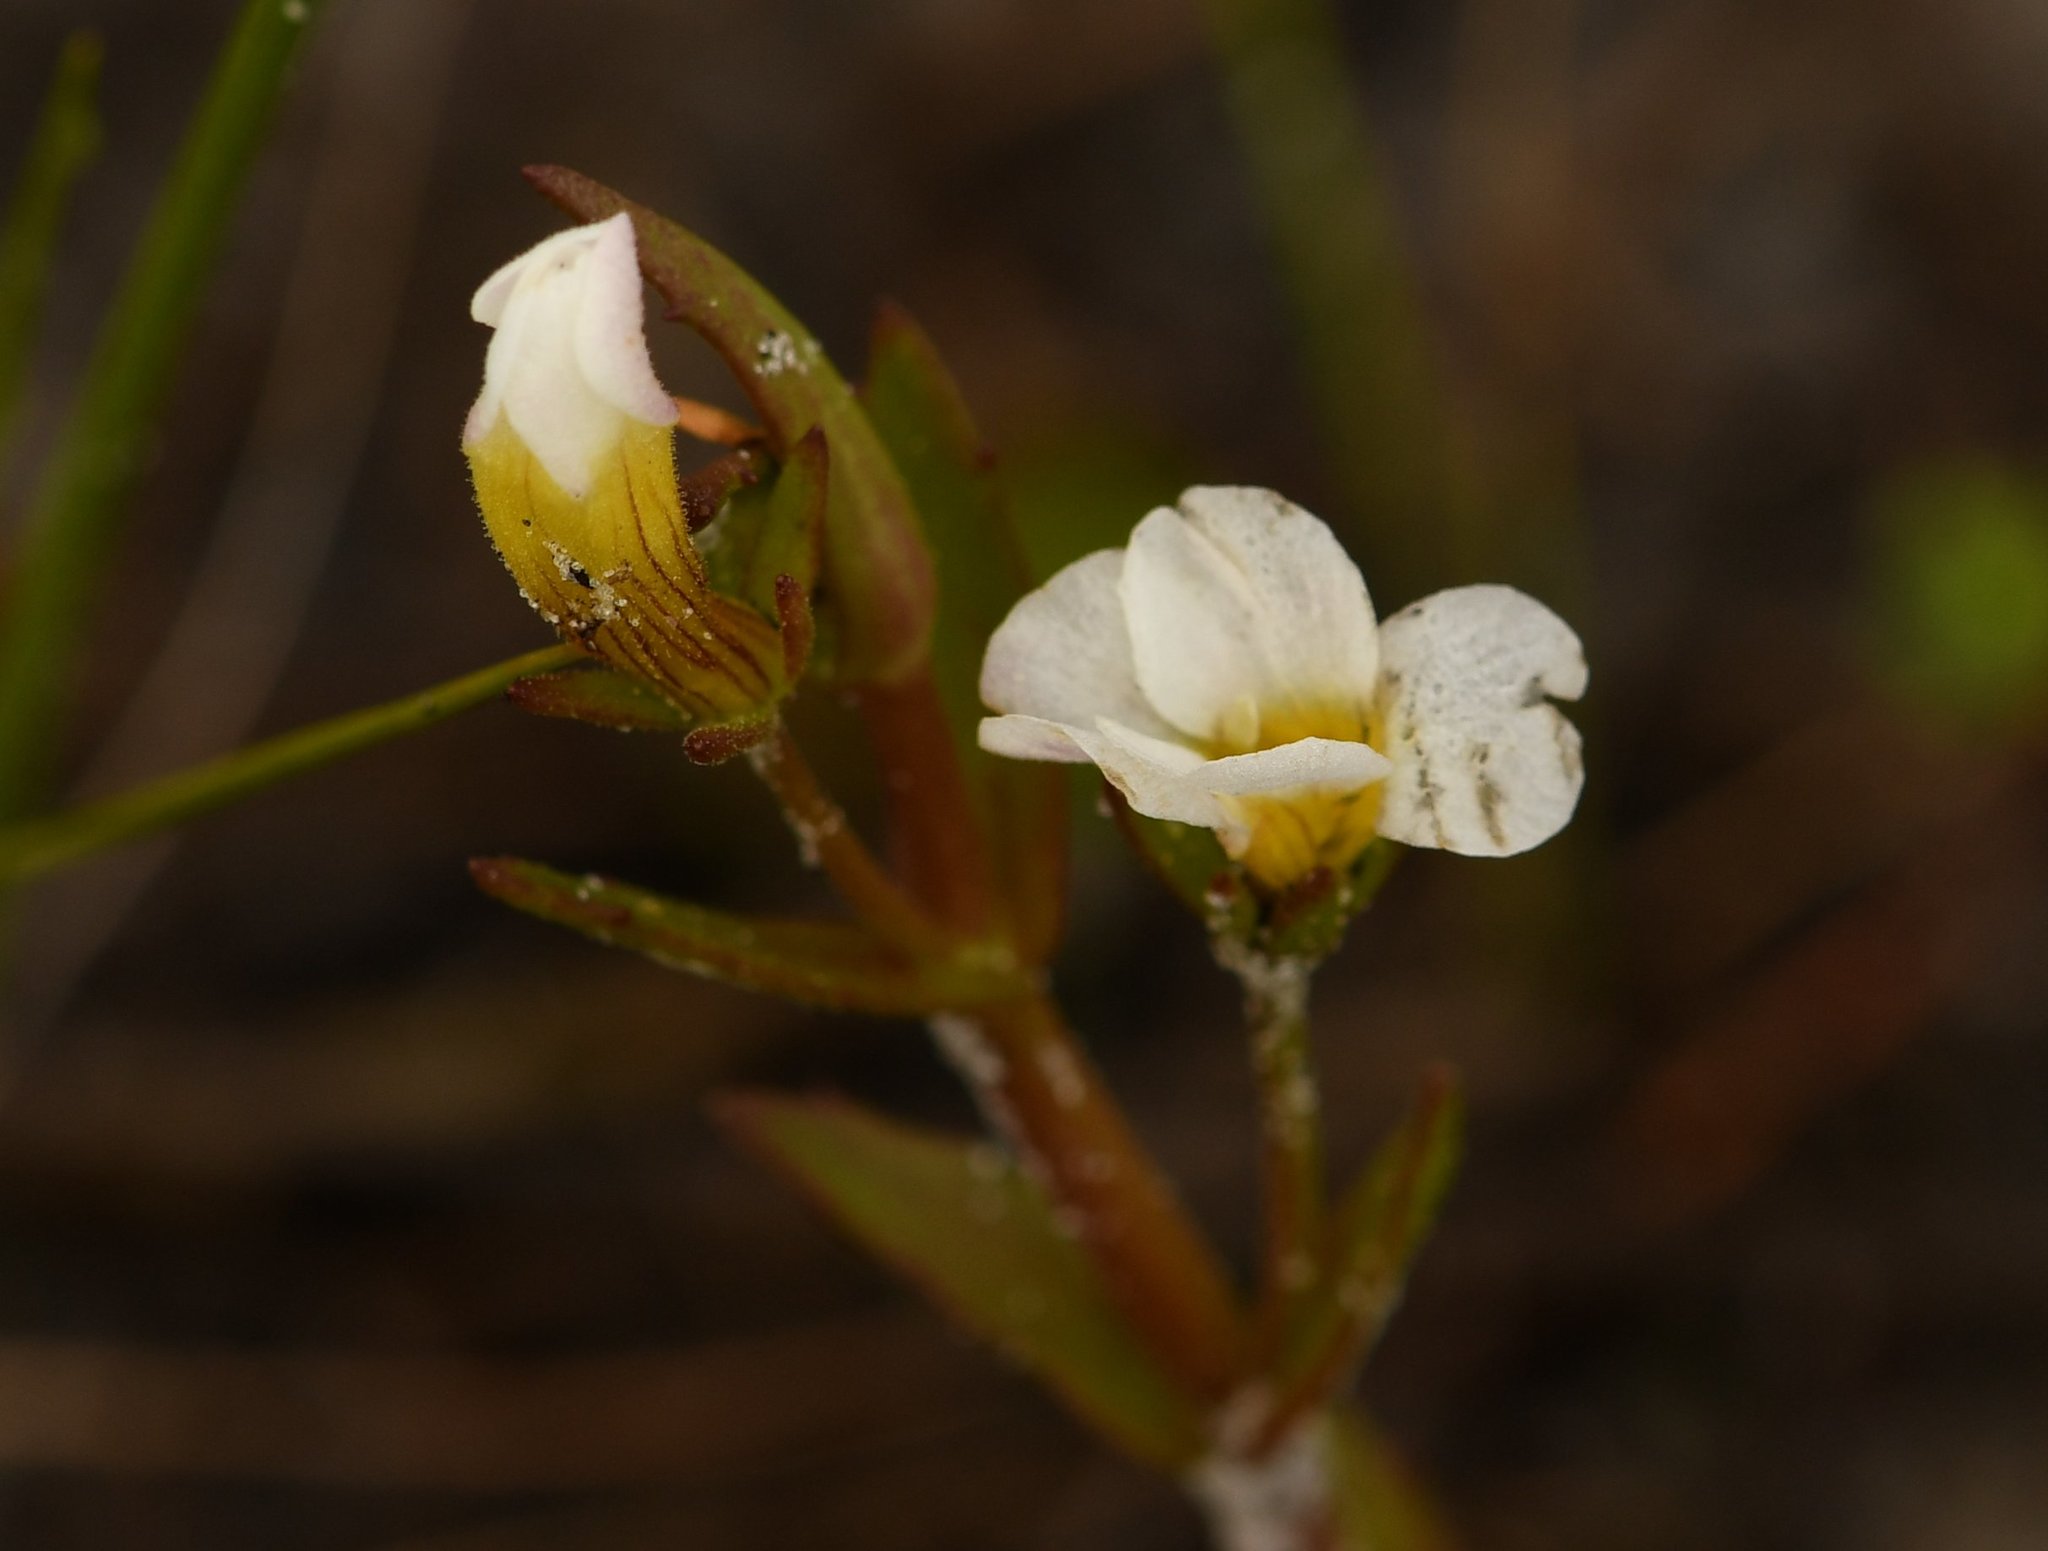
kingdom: Plantae
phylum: Tracheophyta
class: Magnoliopsida
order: Lamiales
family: Plantaginaceae
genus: Gratiola
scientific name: Gratiola ramosa
